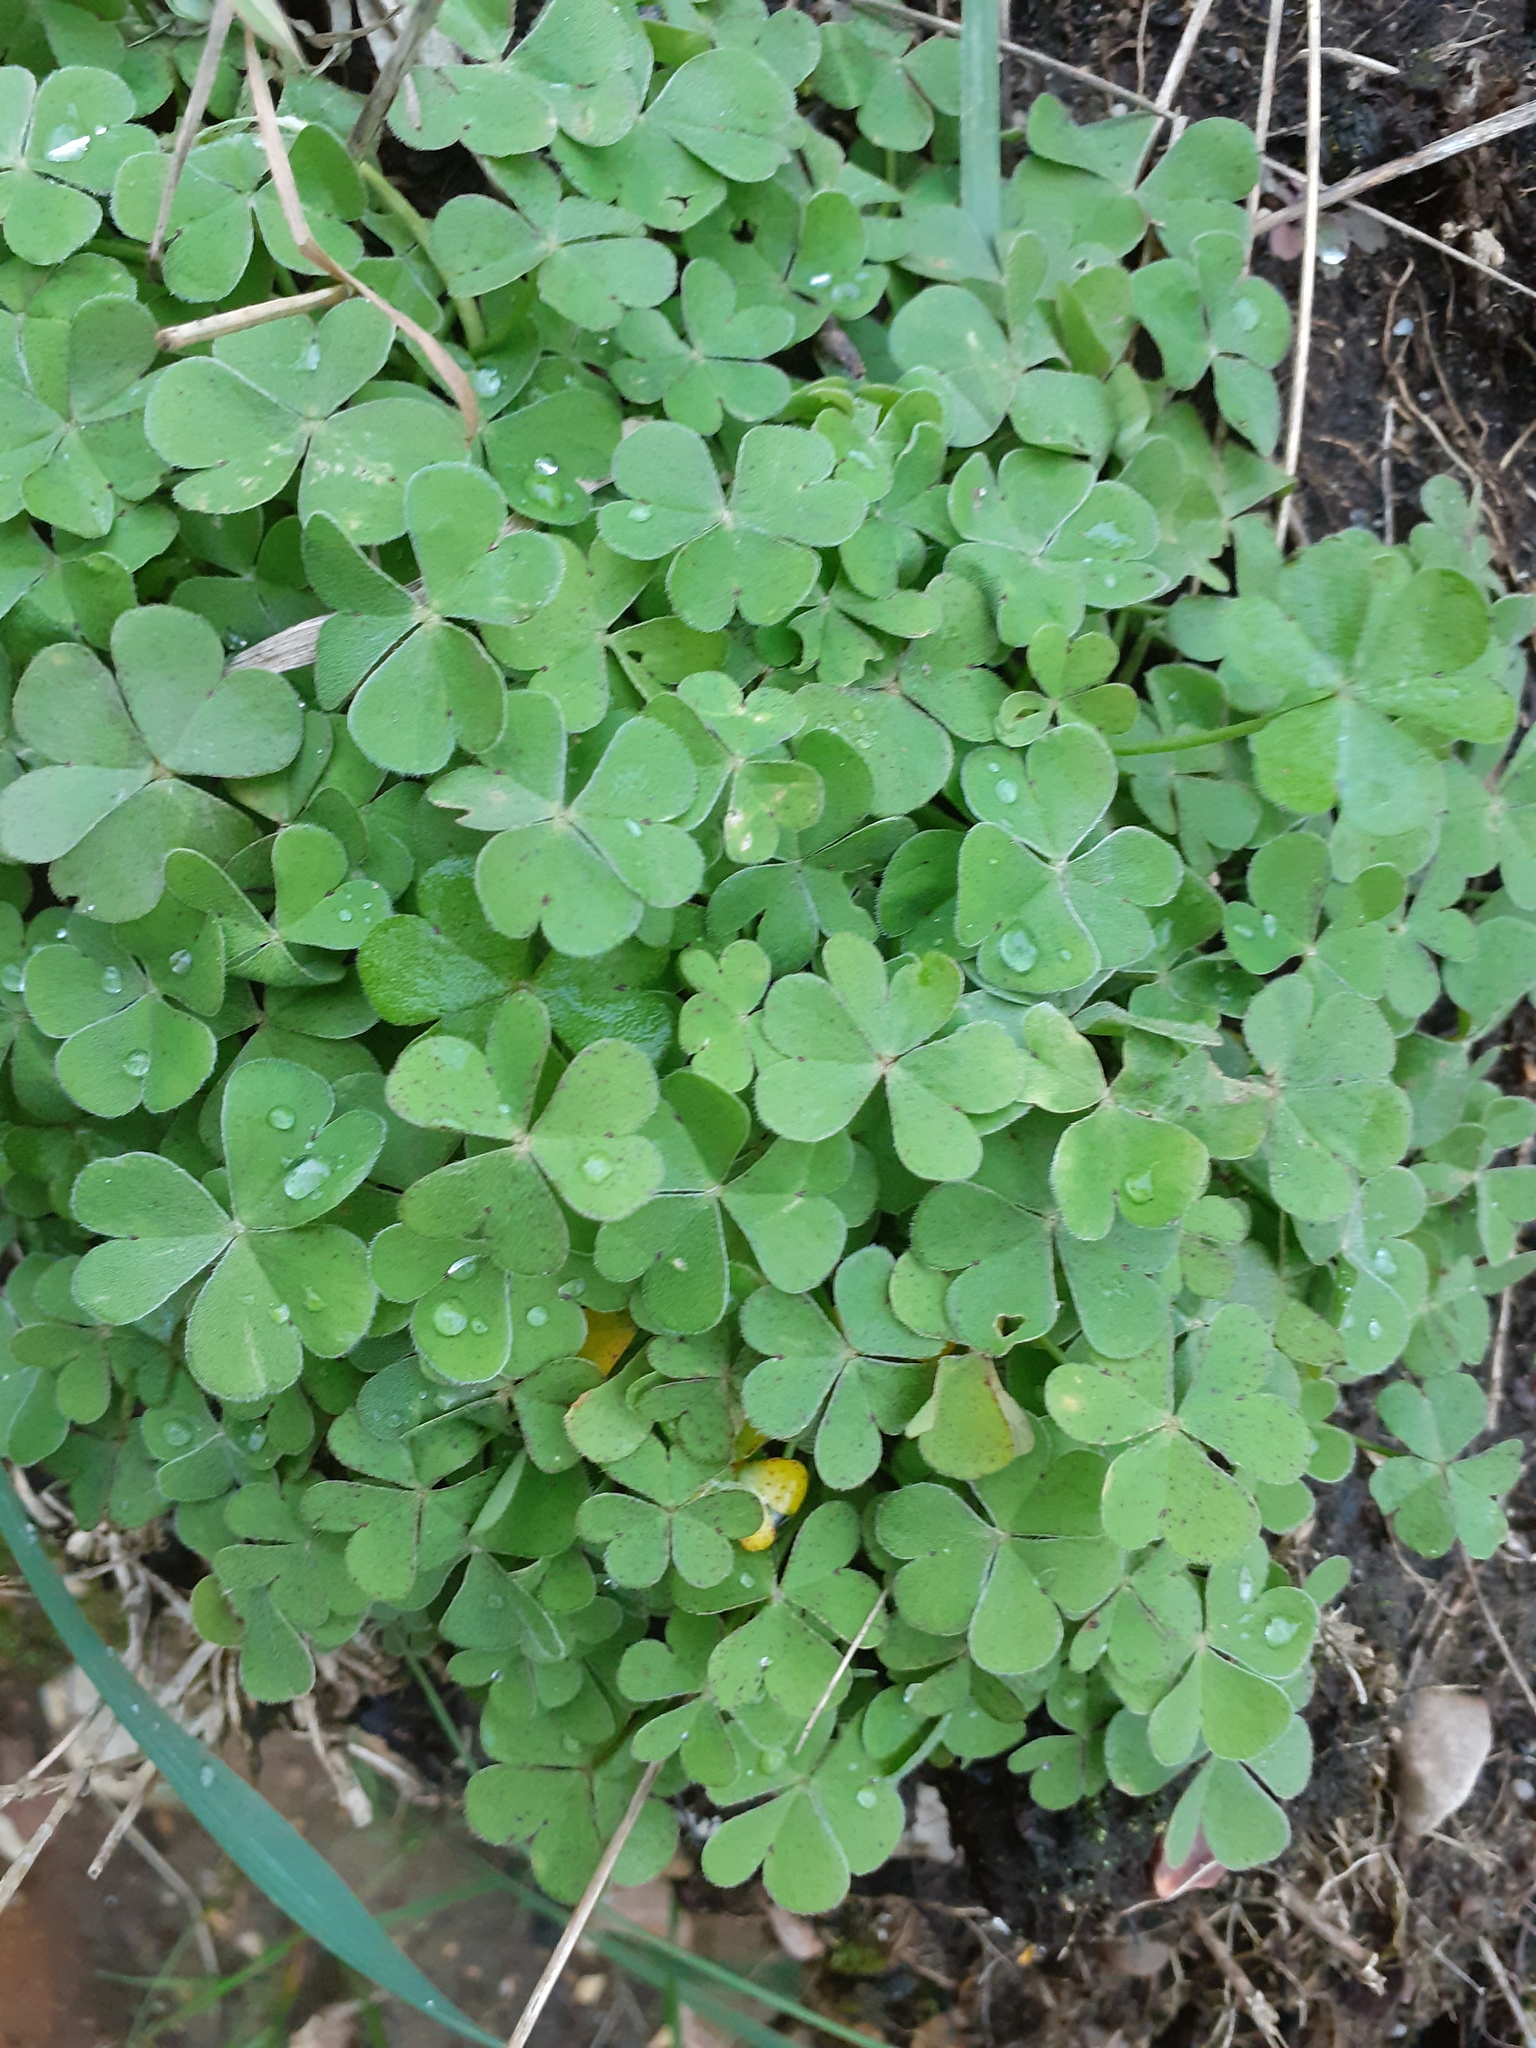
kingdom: Plantae
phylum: Tracheophyta
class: Magnoliopsida
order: Oxalidales
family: Oxalidaceae
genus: Oxalis
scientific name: Oxalis articulata
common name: Pink-sorrel
